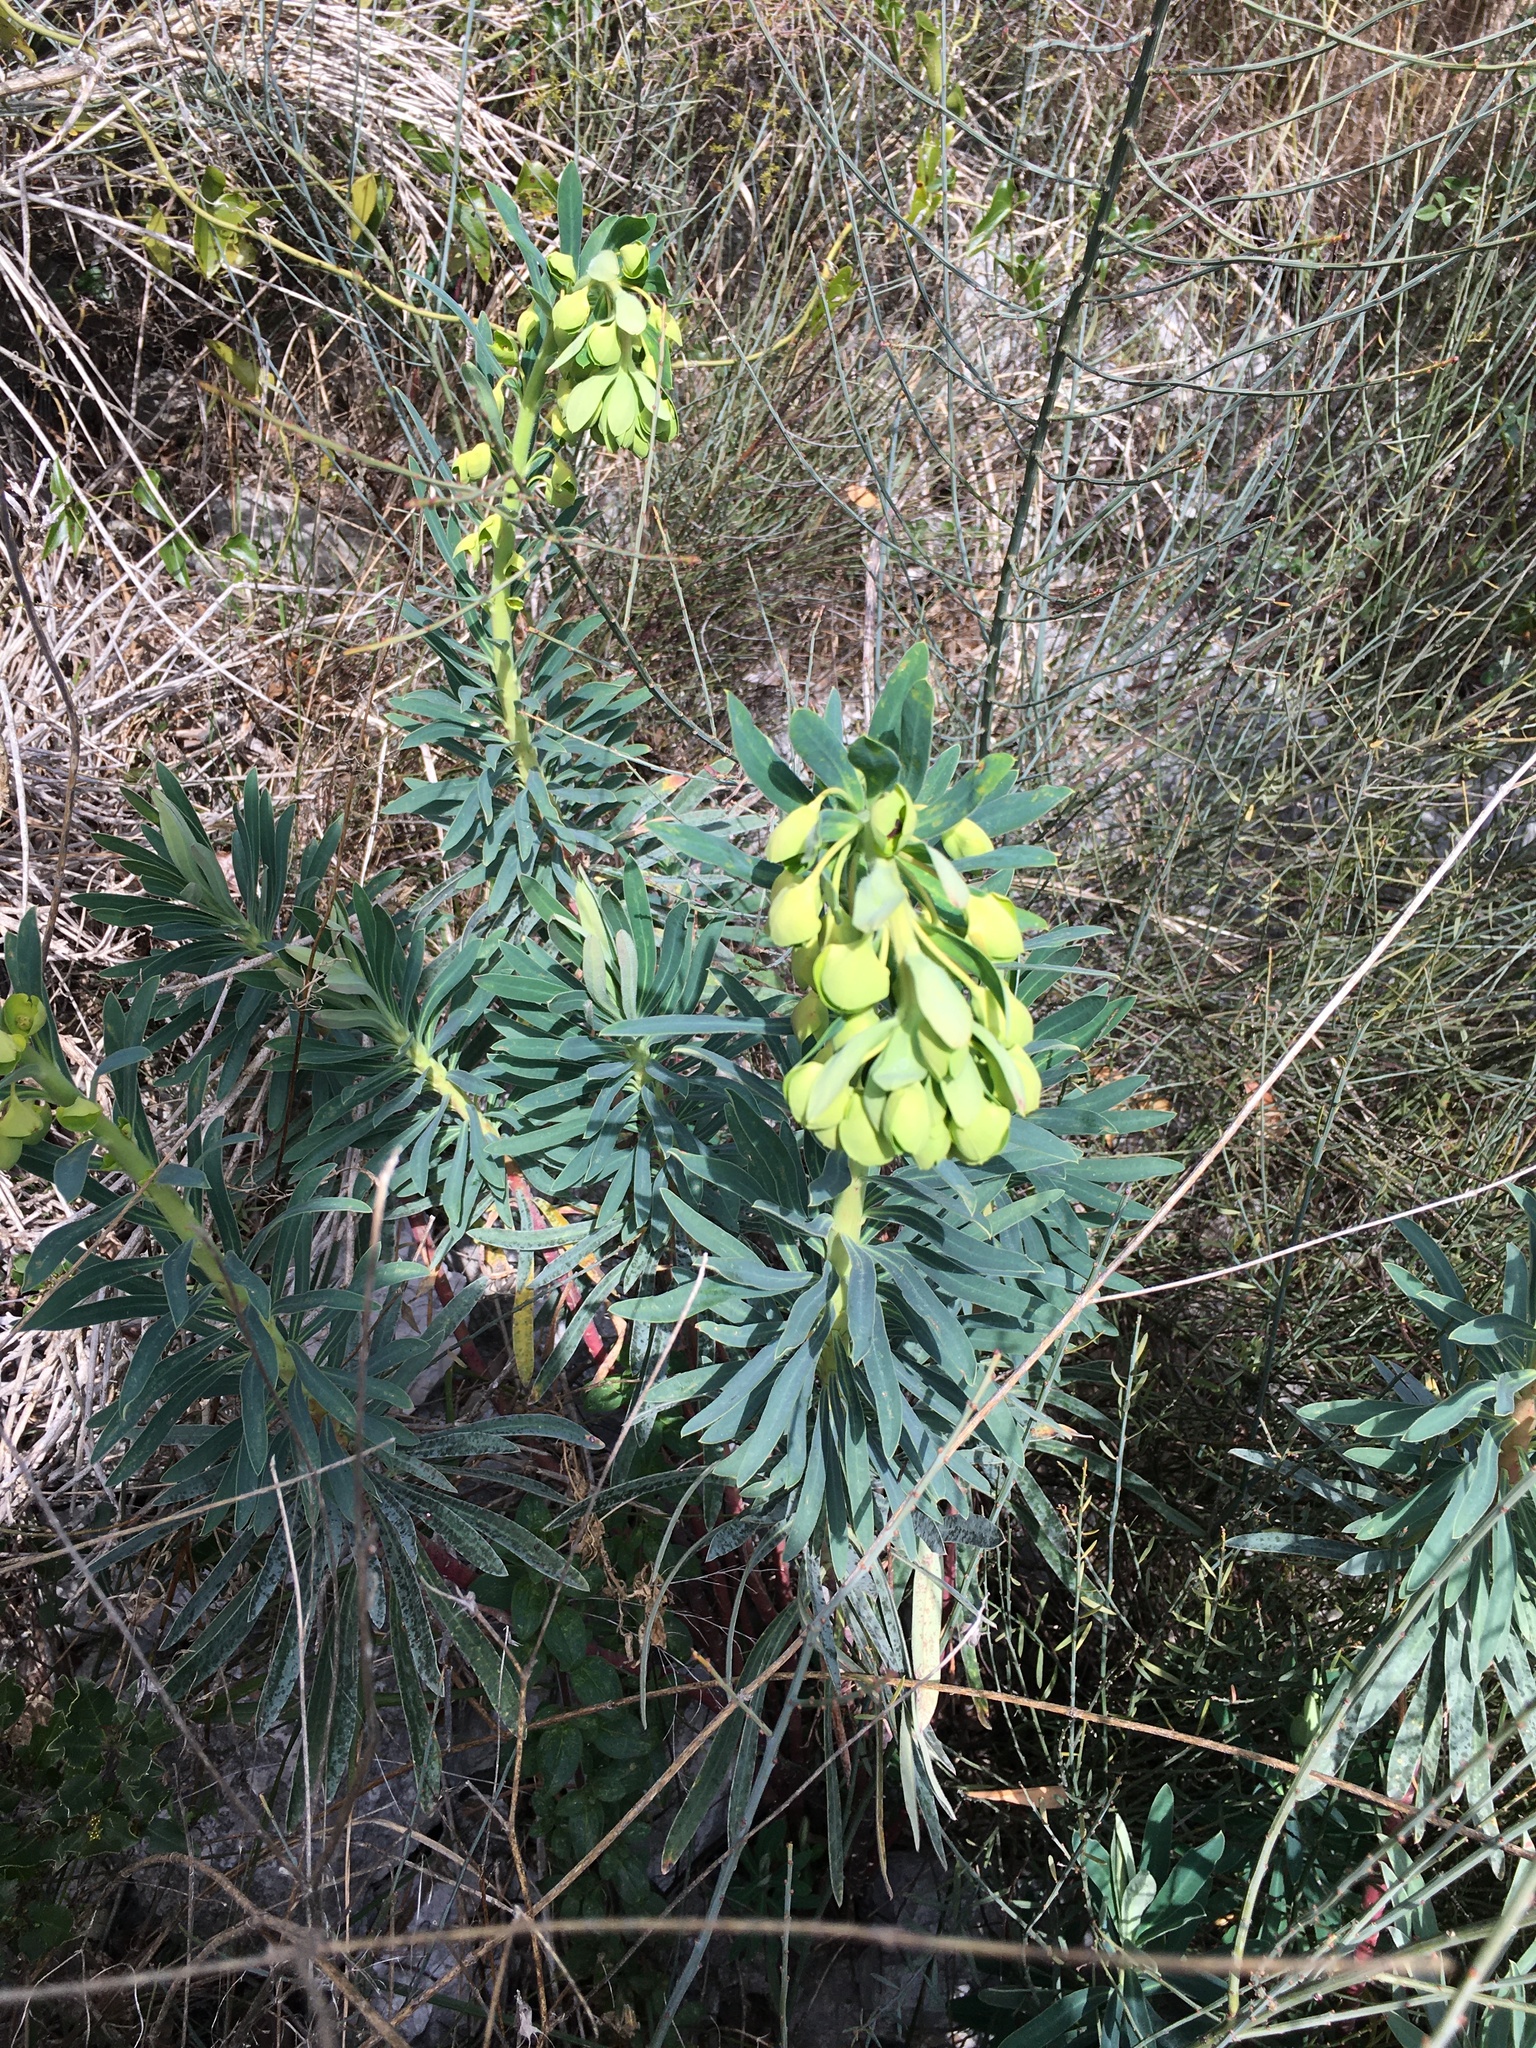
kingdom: Plantae
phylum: Tracheophyta
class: Magnoliopsida
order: Malpighiales
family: Euphorbiaceae
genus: Euphorbia
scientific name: Euphorbia characias
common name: Mediterranean spurge
